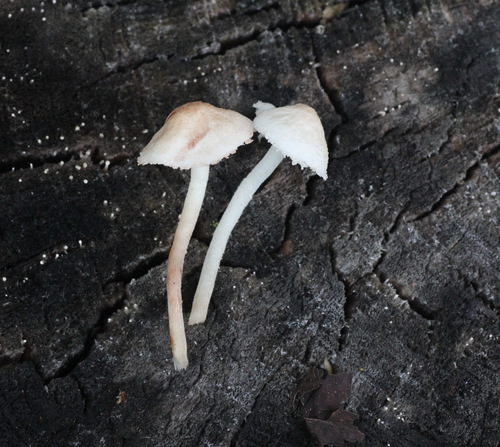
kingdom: Fungi
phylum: Basidiomycota
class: Agaricomycetes
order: Agaricales
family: Agaricaceae
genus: Cystolepiota
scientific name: Cystolepiota seminuda
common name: Bearded dapperling
